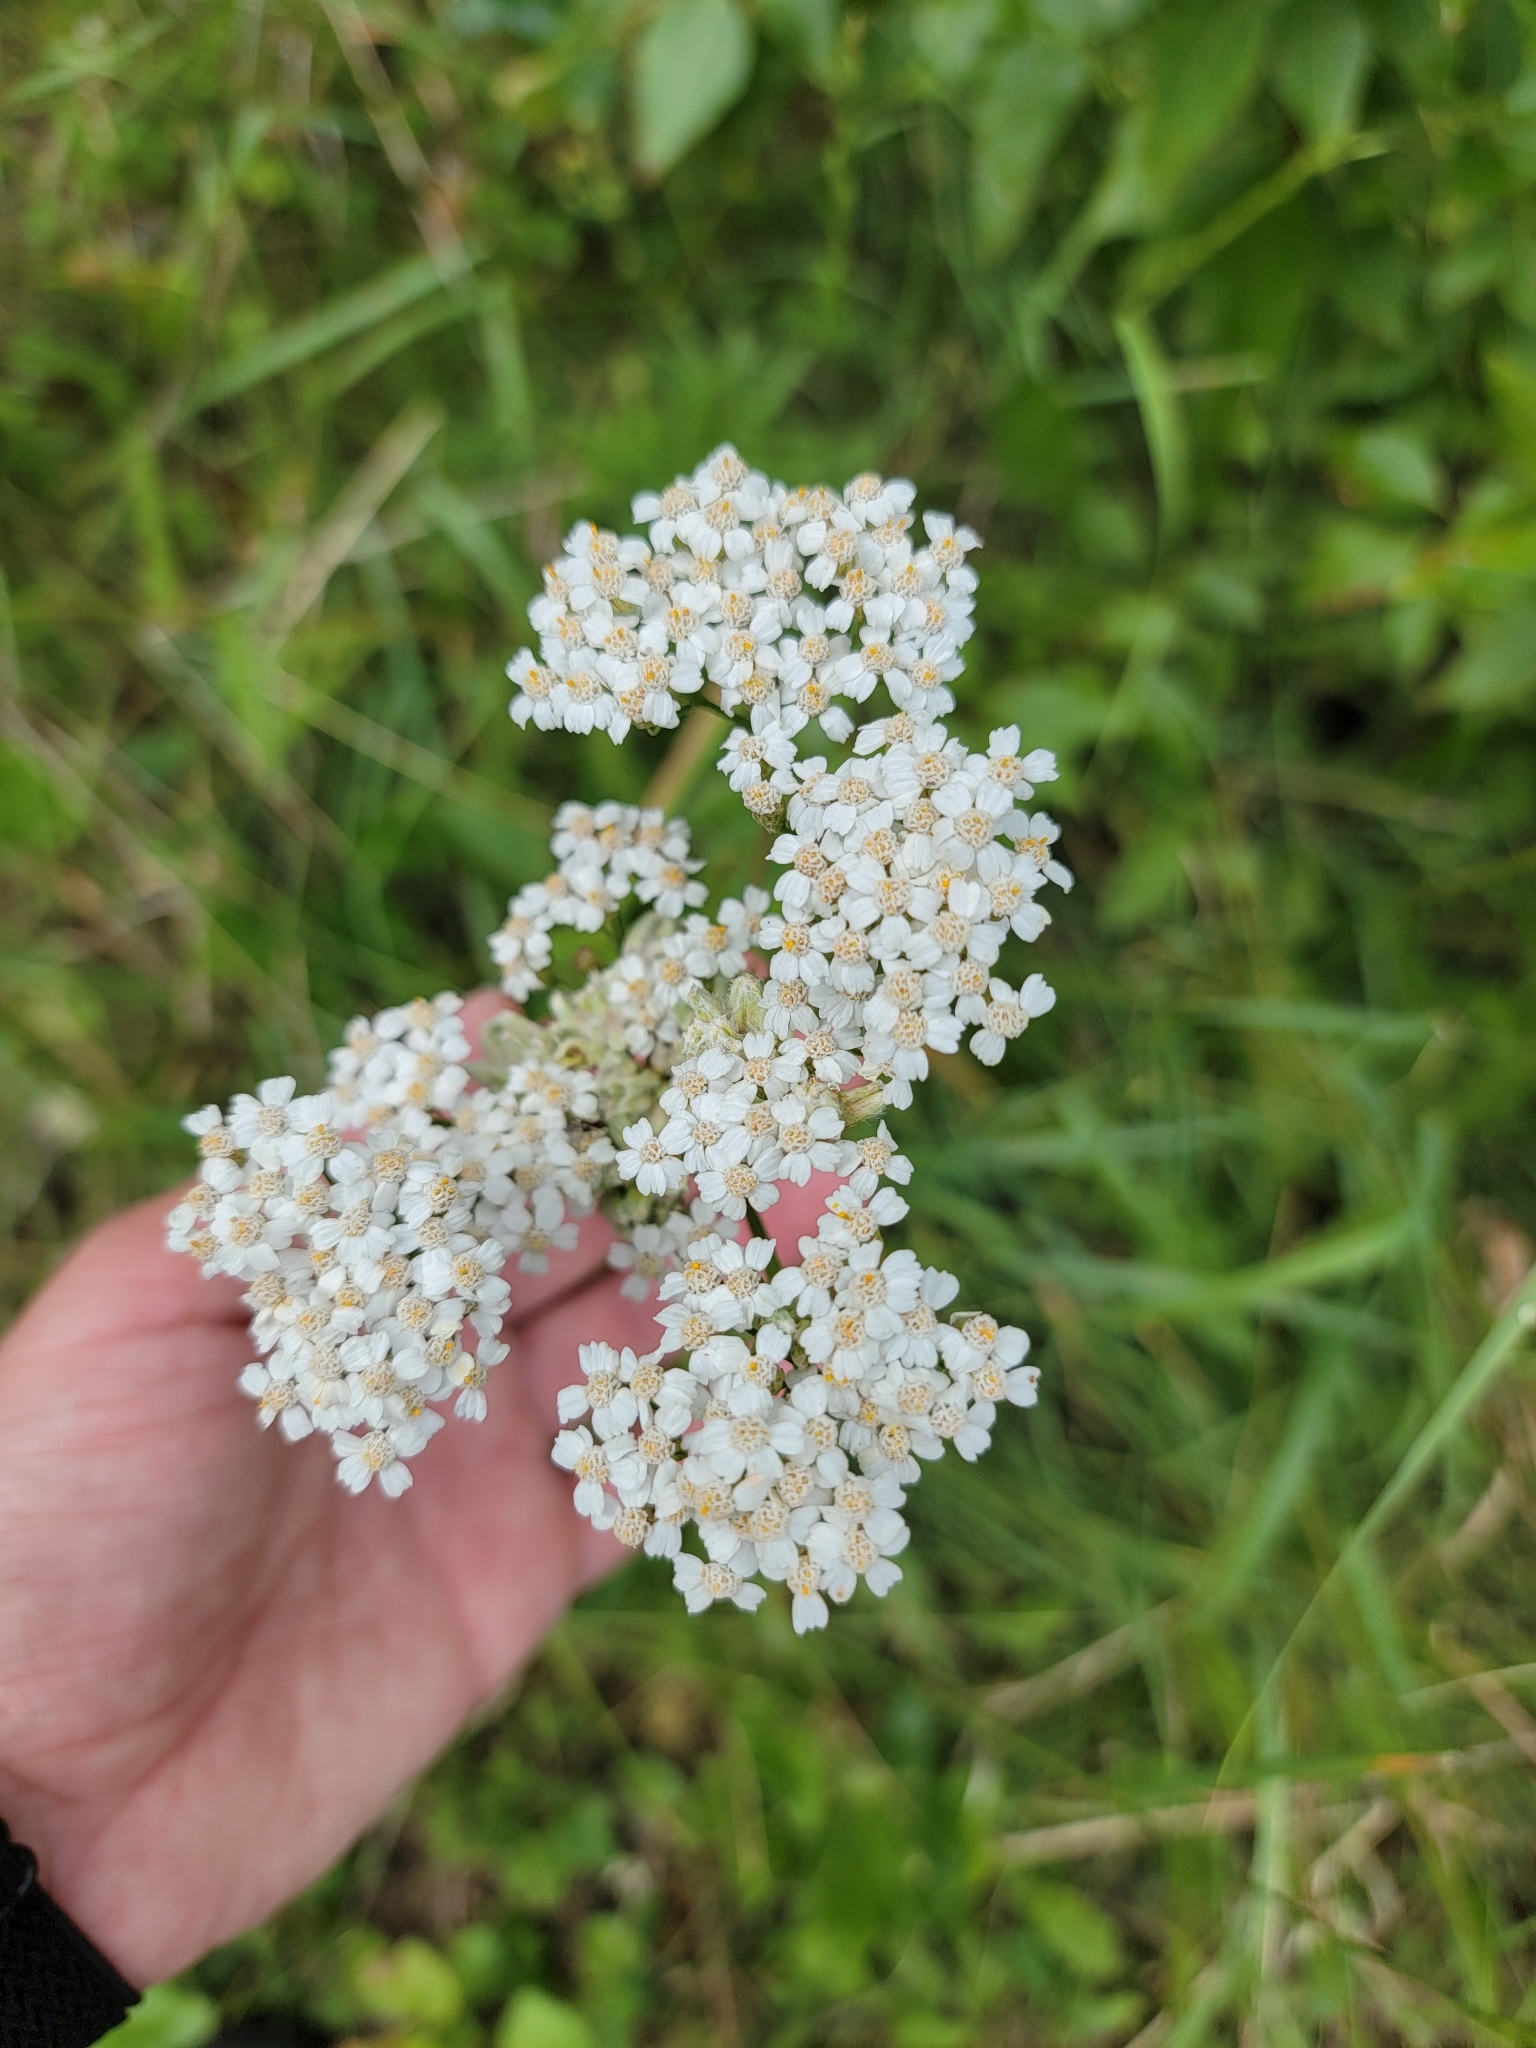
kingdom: Plantae
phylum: Tracheophyta
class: Magnoliopsida
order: Asterales
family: Asteraceae
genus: Achillea
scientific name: Achillea millefolium
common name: Yarrow
